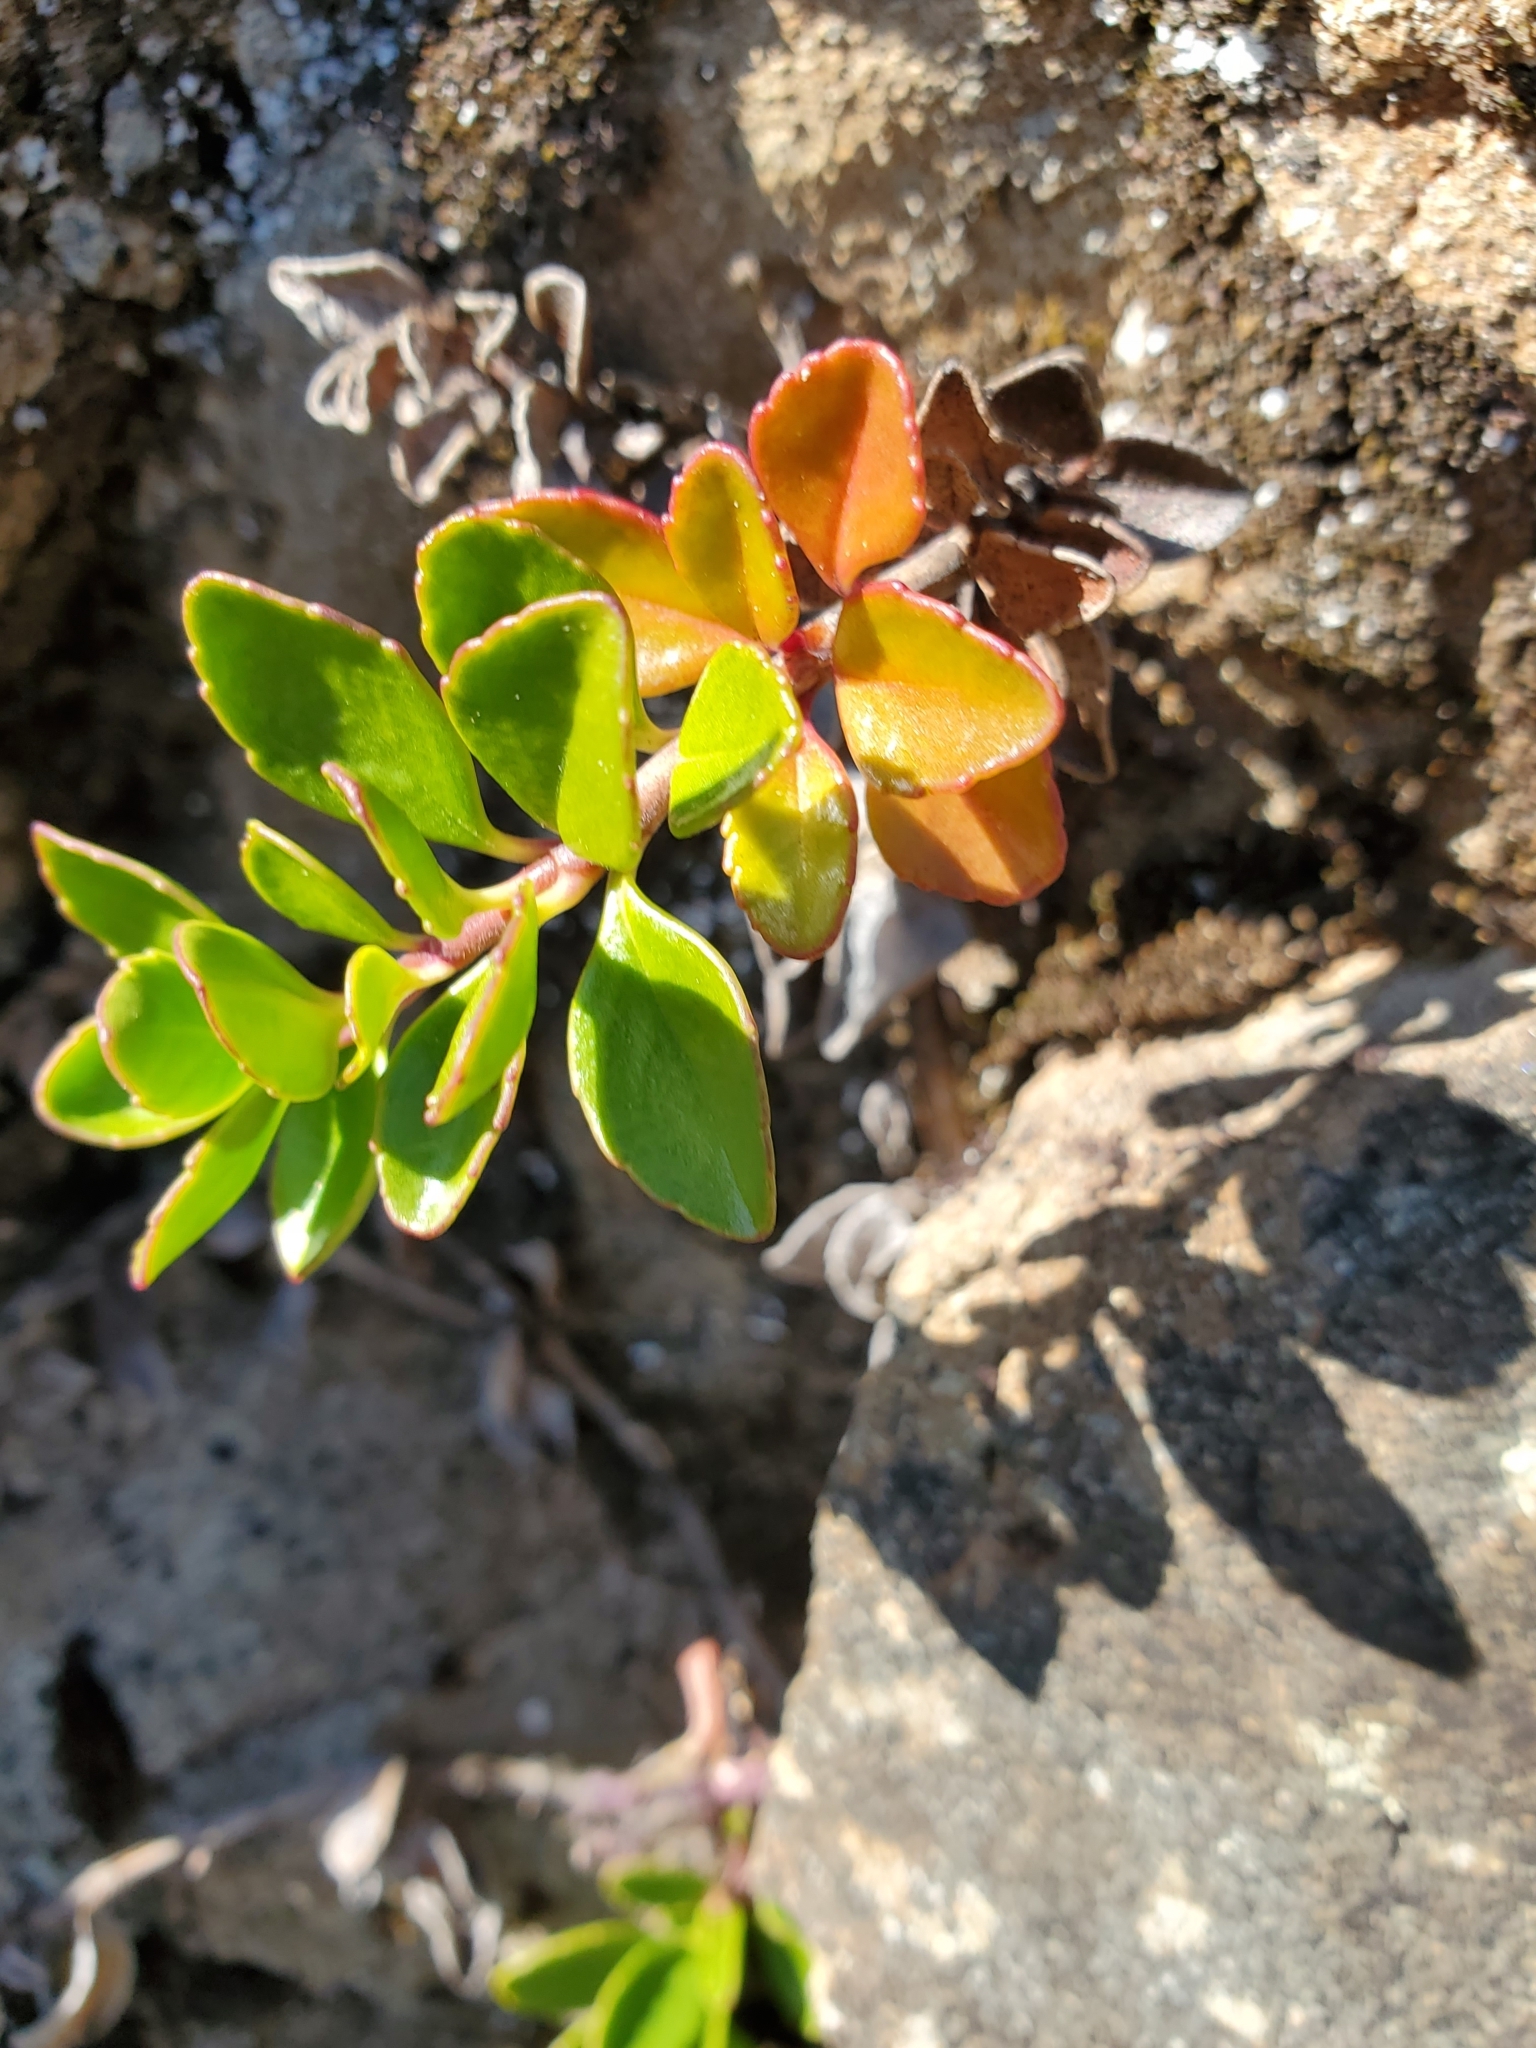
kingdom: Plantae
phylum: Tracheophyta
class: Magnoliopsida
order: Lamiales
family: Plantaginaceae
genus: Penstemon
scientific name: Penstemon davidsonii
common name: Davidson's penstemon
